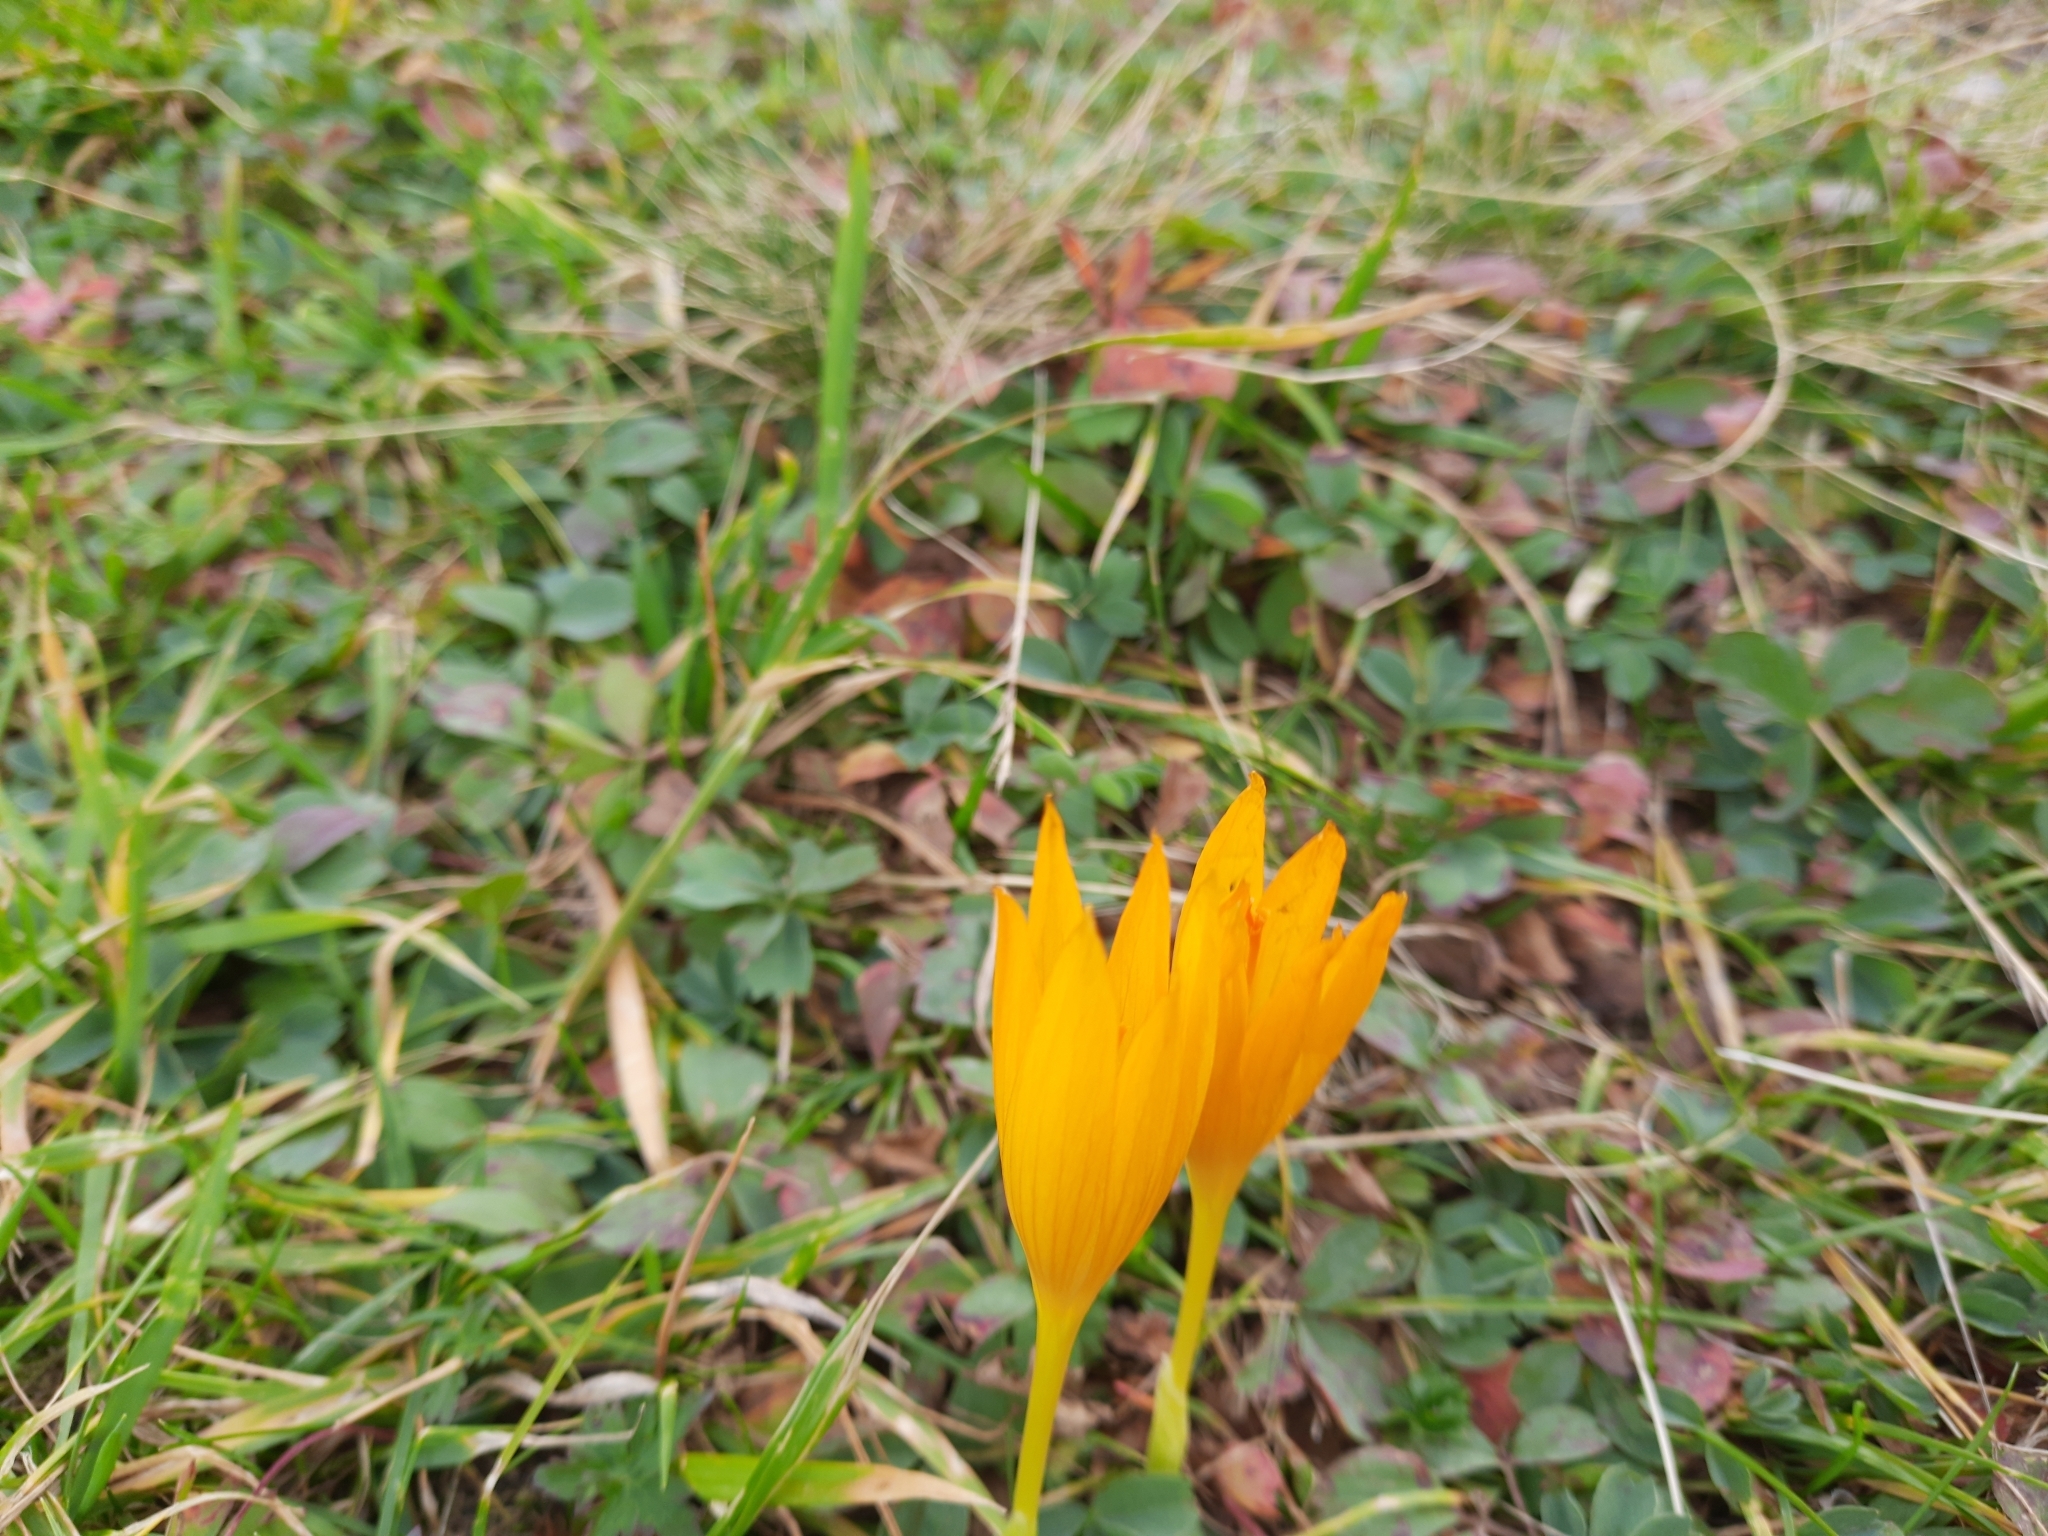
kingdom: Plantae
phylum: Tracheophyta
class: Liliopsida
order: Asparagales
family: Iridaceae
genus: Crocus
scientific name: Crocus scharojanii
